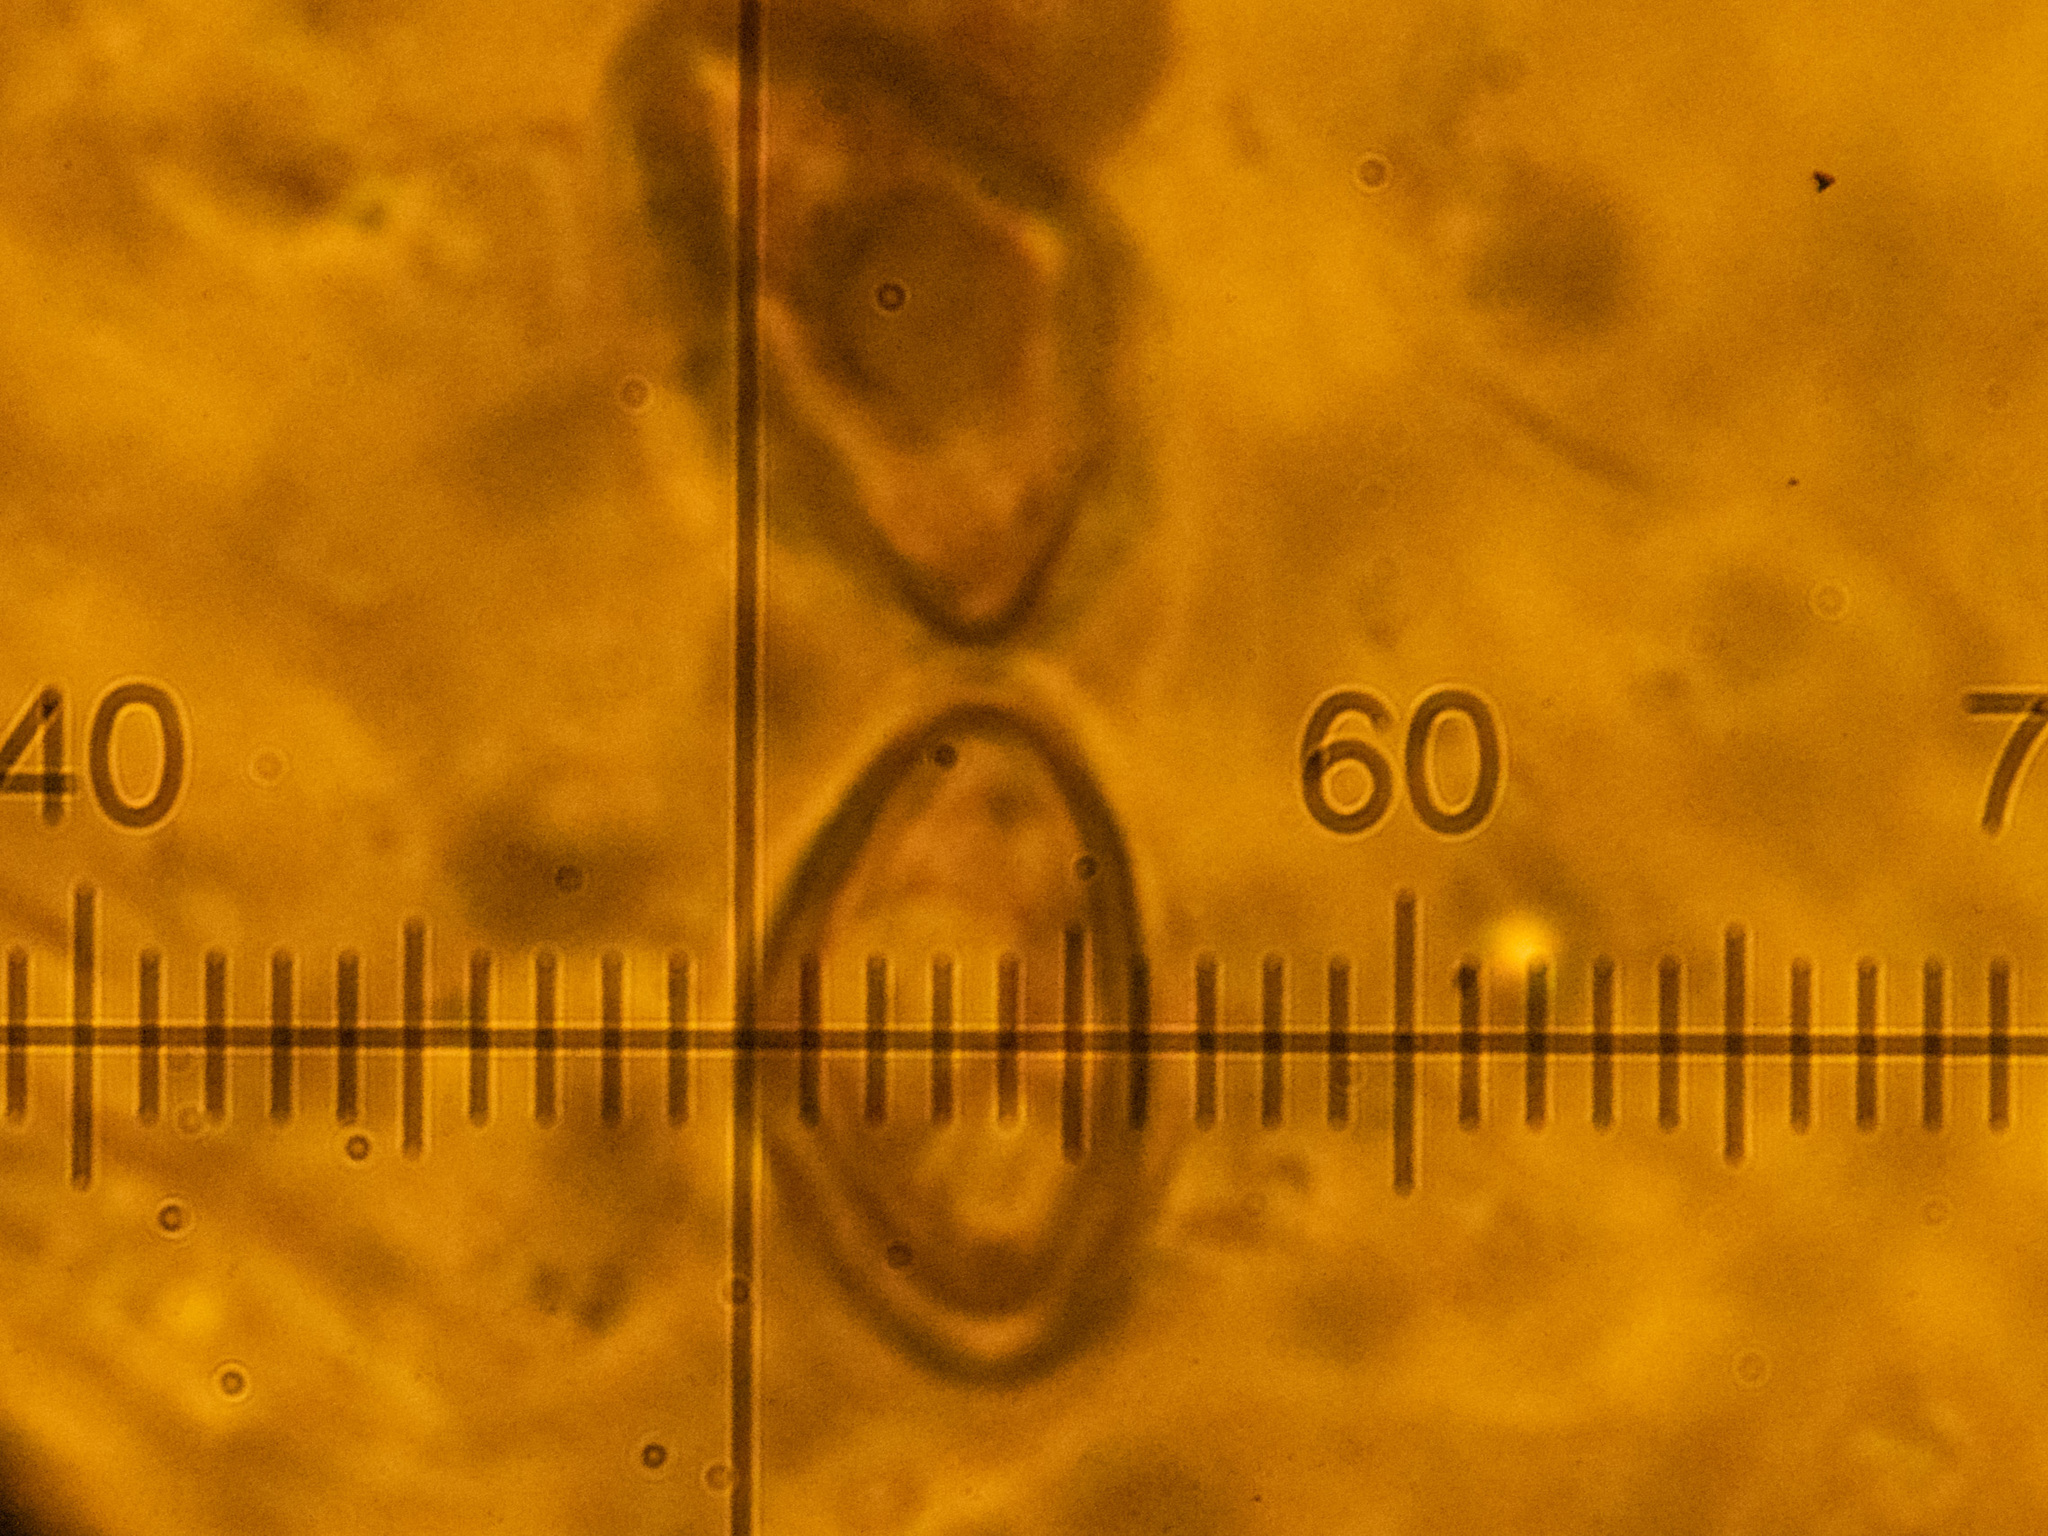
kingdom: Fungi
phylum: Ascomycota
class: Sordariomycetes
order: Xylariales
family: Hypoxylaceae
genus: Hypoxylon
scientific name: Hypoxylon petriniae
